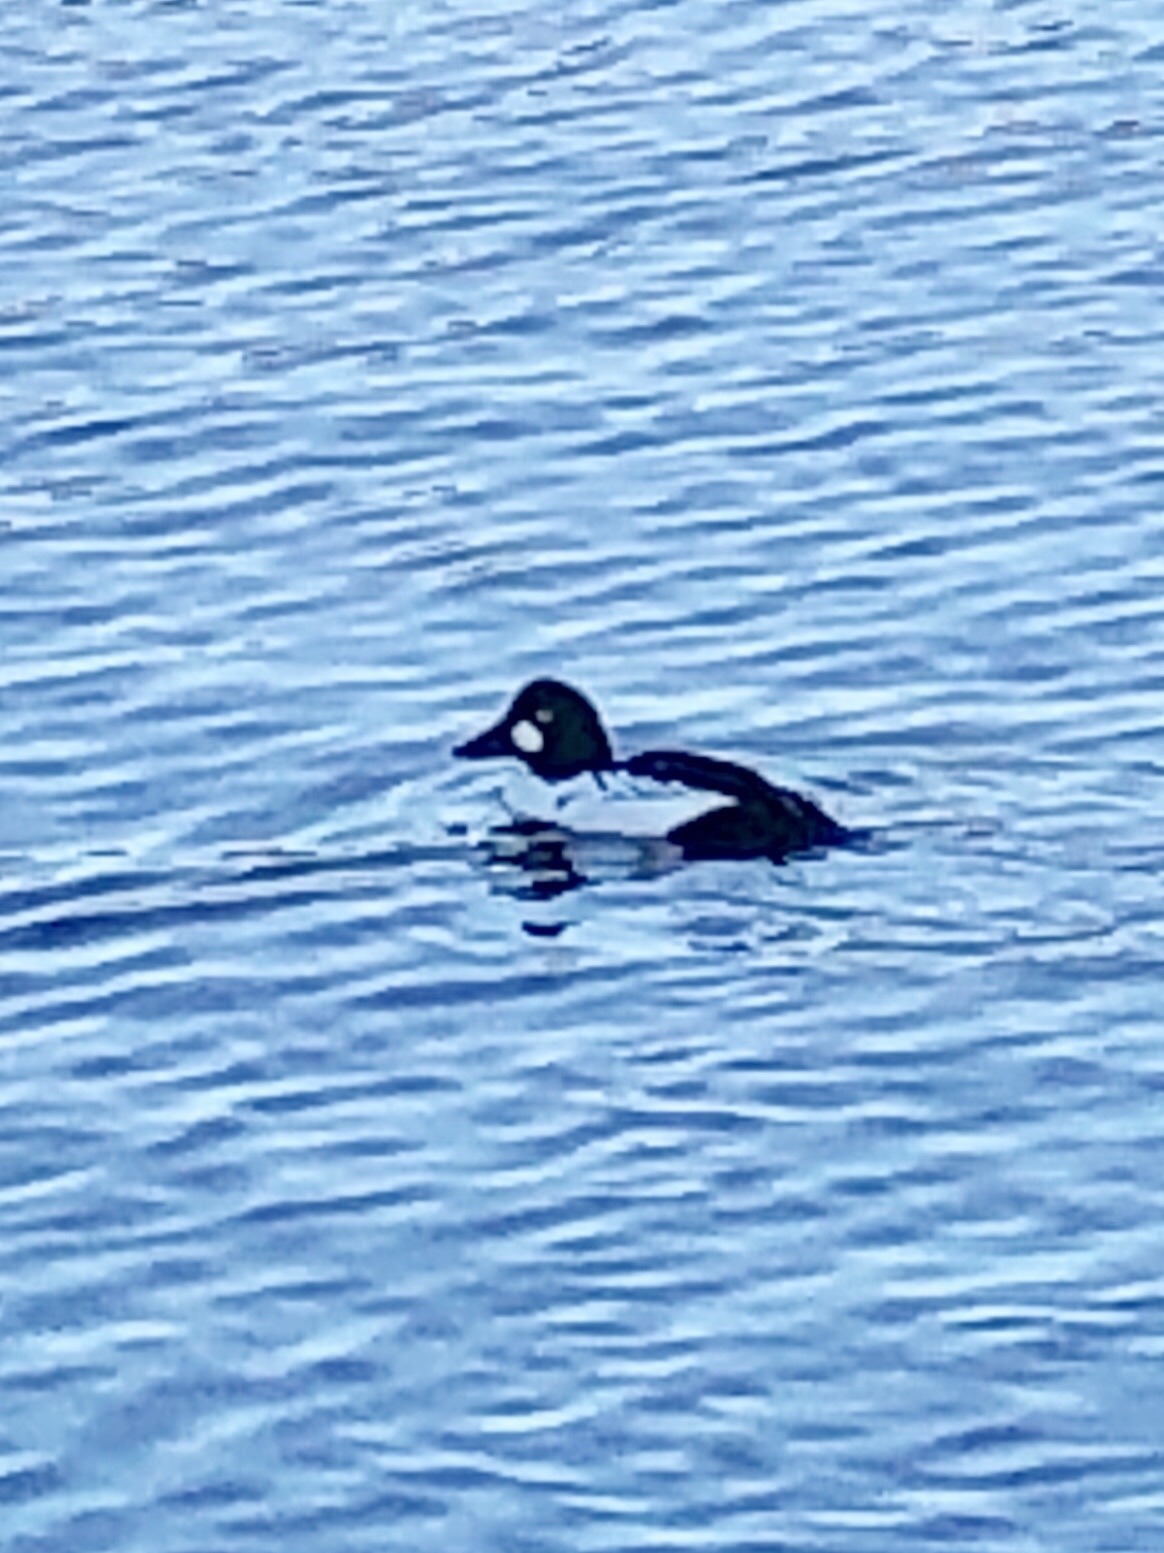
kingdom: Animalia
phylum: Chordata
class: Aves
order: Anseriformes
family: Anatidae
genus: Bucephala
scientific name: Bucephala clangula
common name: Common goldeneye
